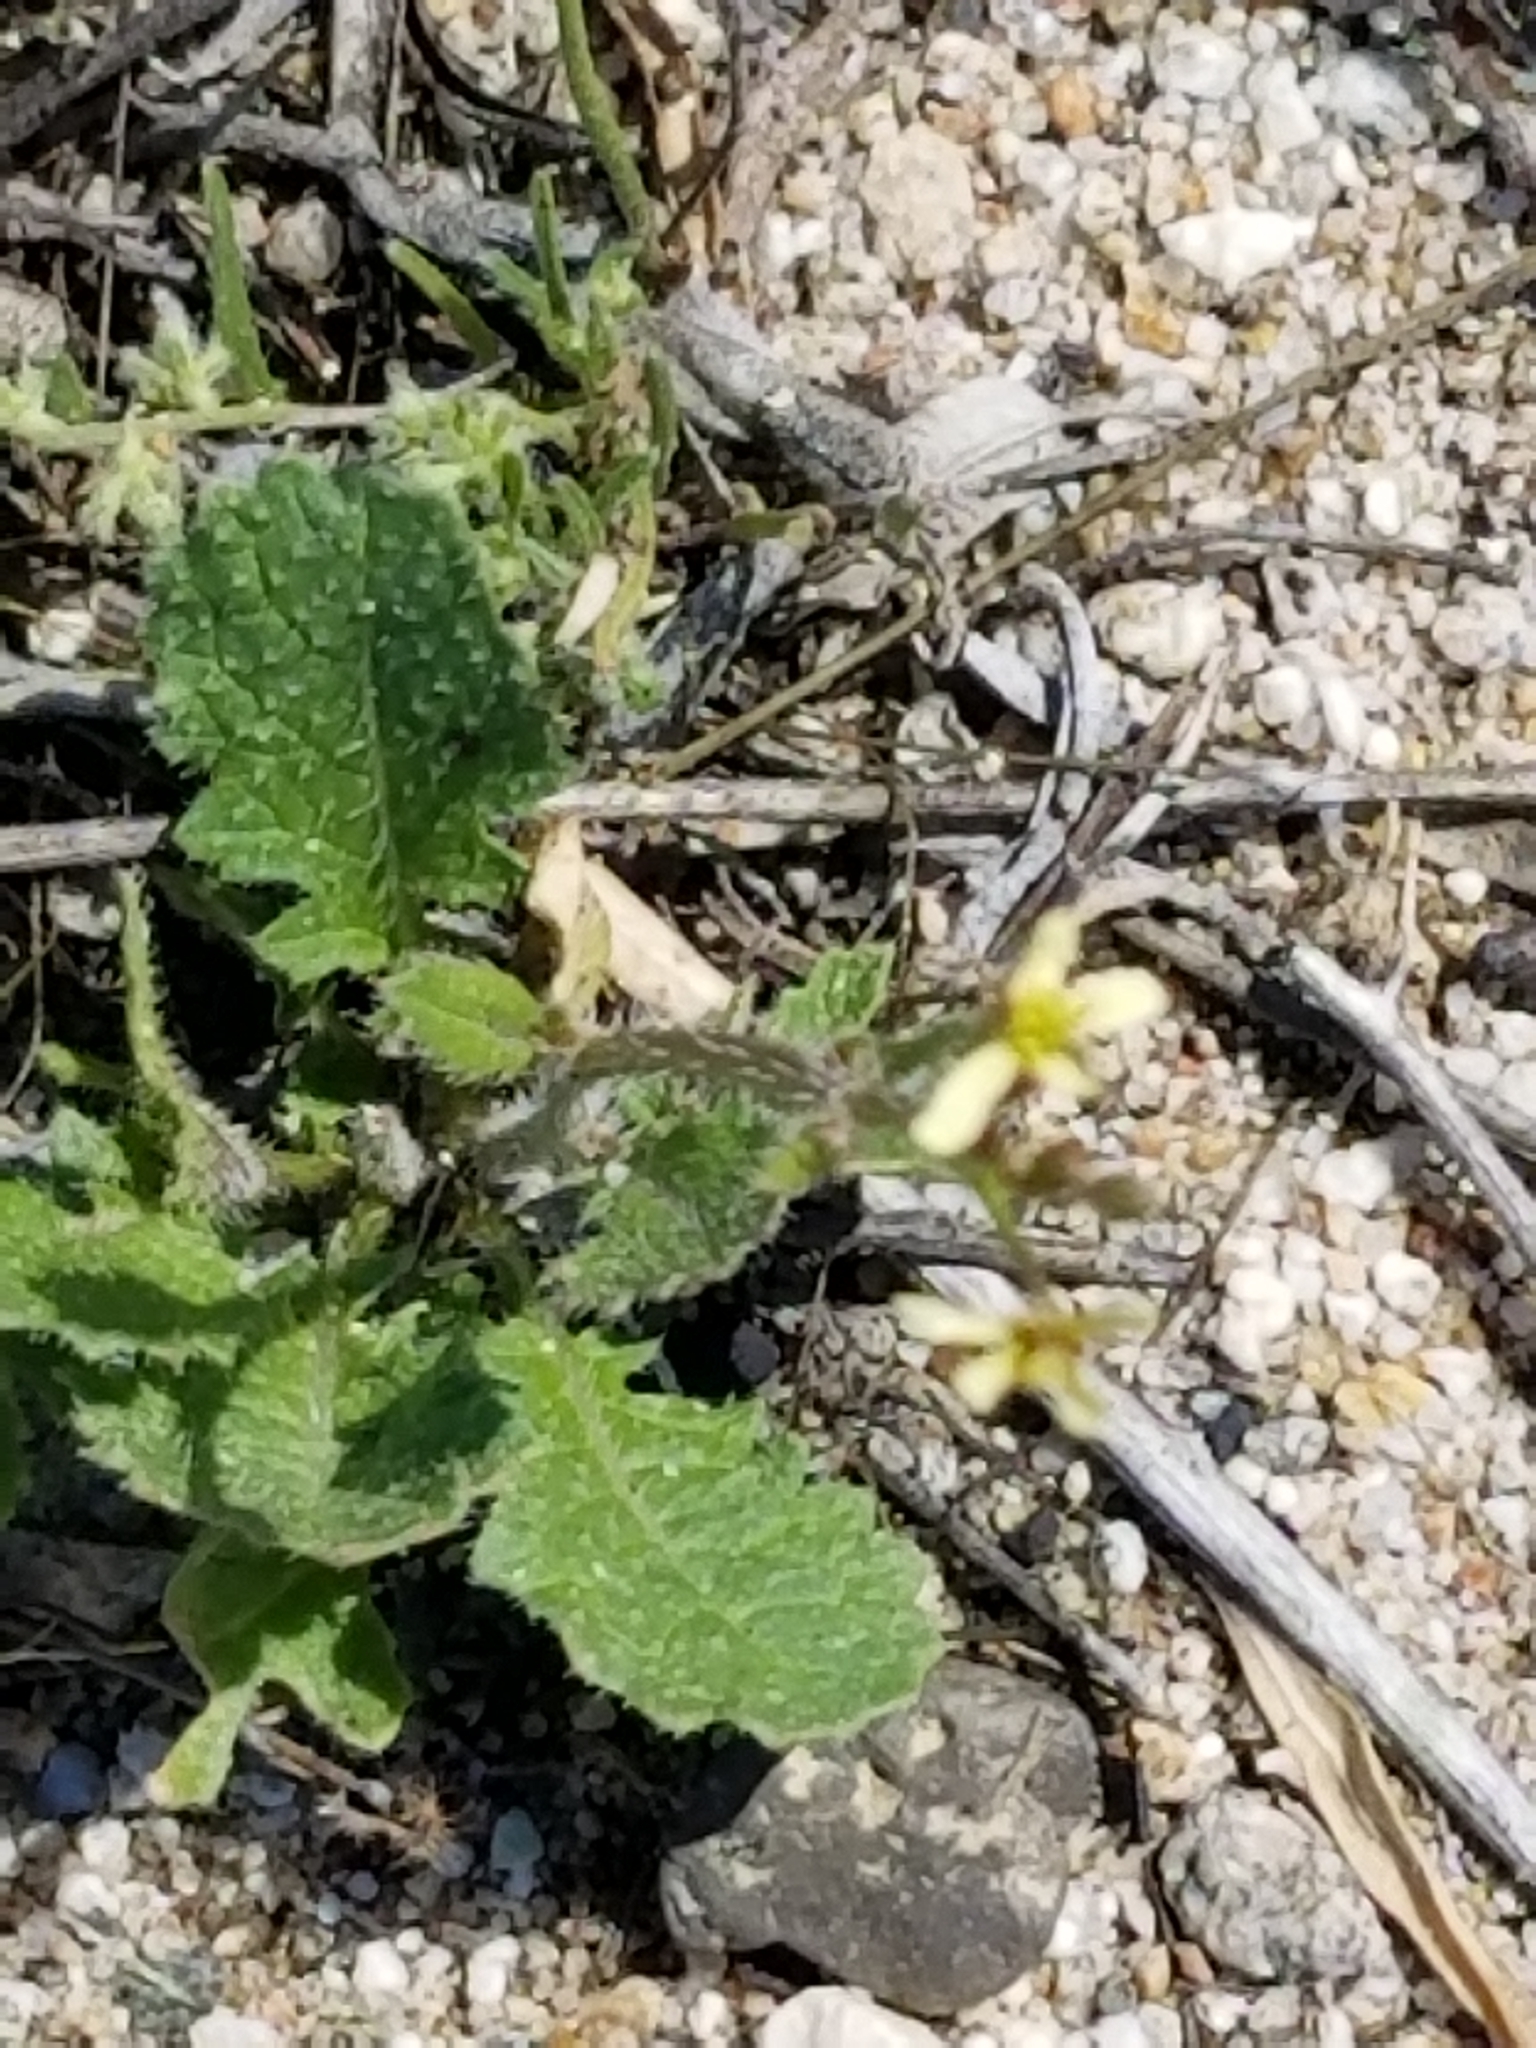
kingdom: Plantae
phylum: Tracheophyta
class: Magnoliopsida
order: Brassicales
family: Brassicaceae
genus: Brassica
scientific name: Brassica tournefortii
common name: Pale cabbage
